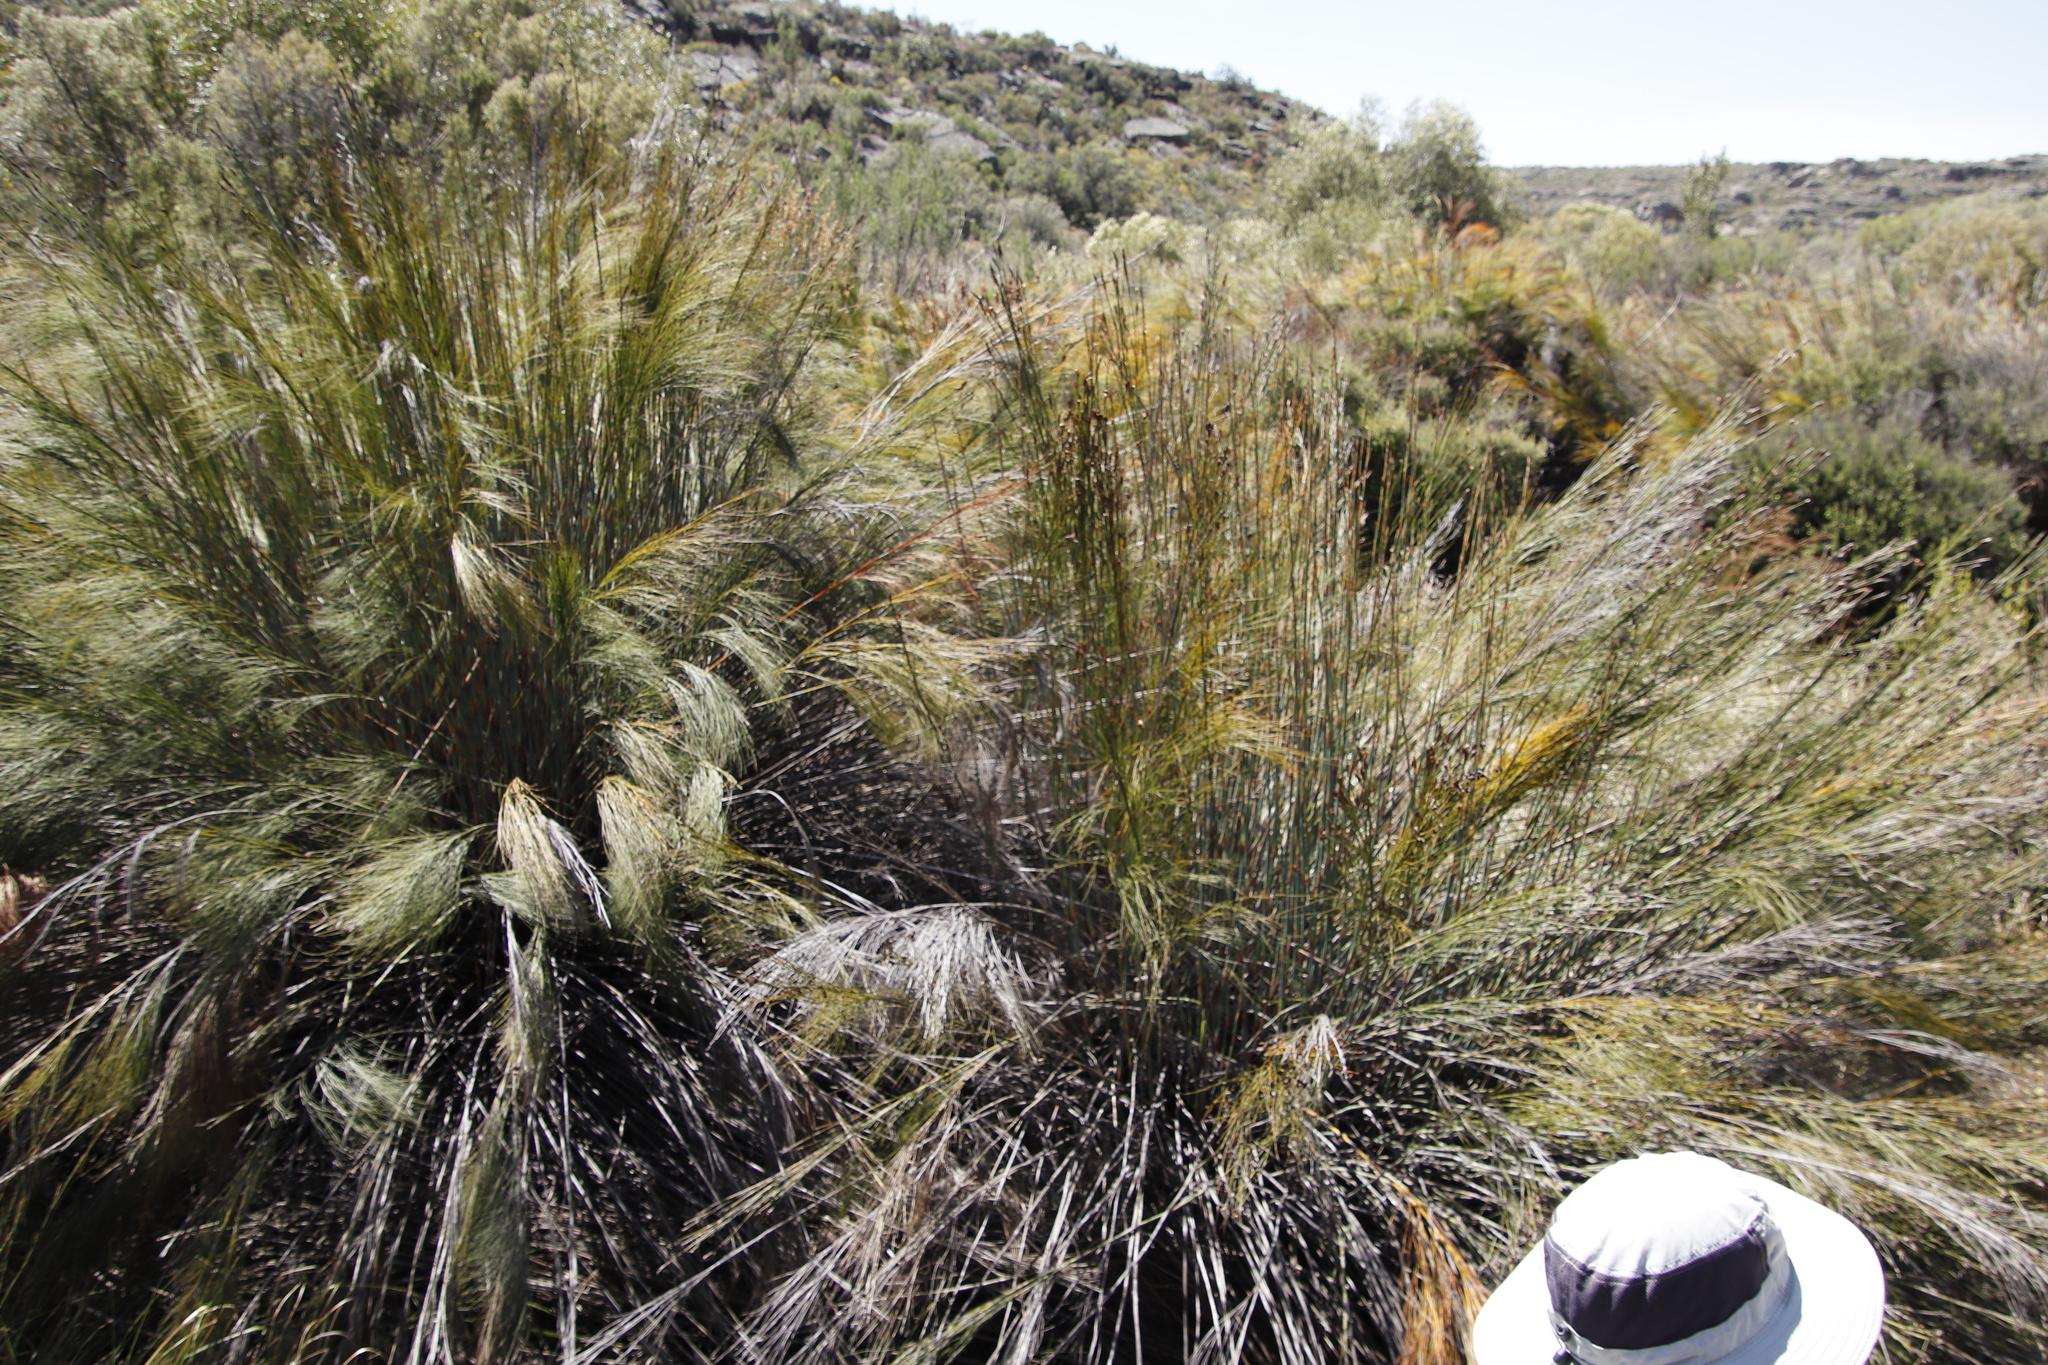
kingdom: Plantae
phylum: Tracheophyta
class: Liliopsida
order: Poales
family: Restionaceae
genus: Cannomois
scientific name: Cannomois robusta
